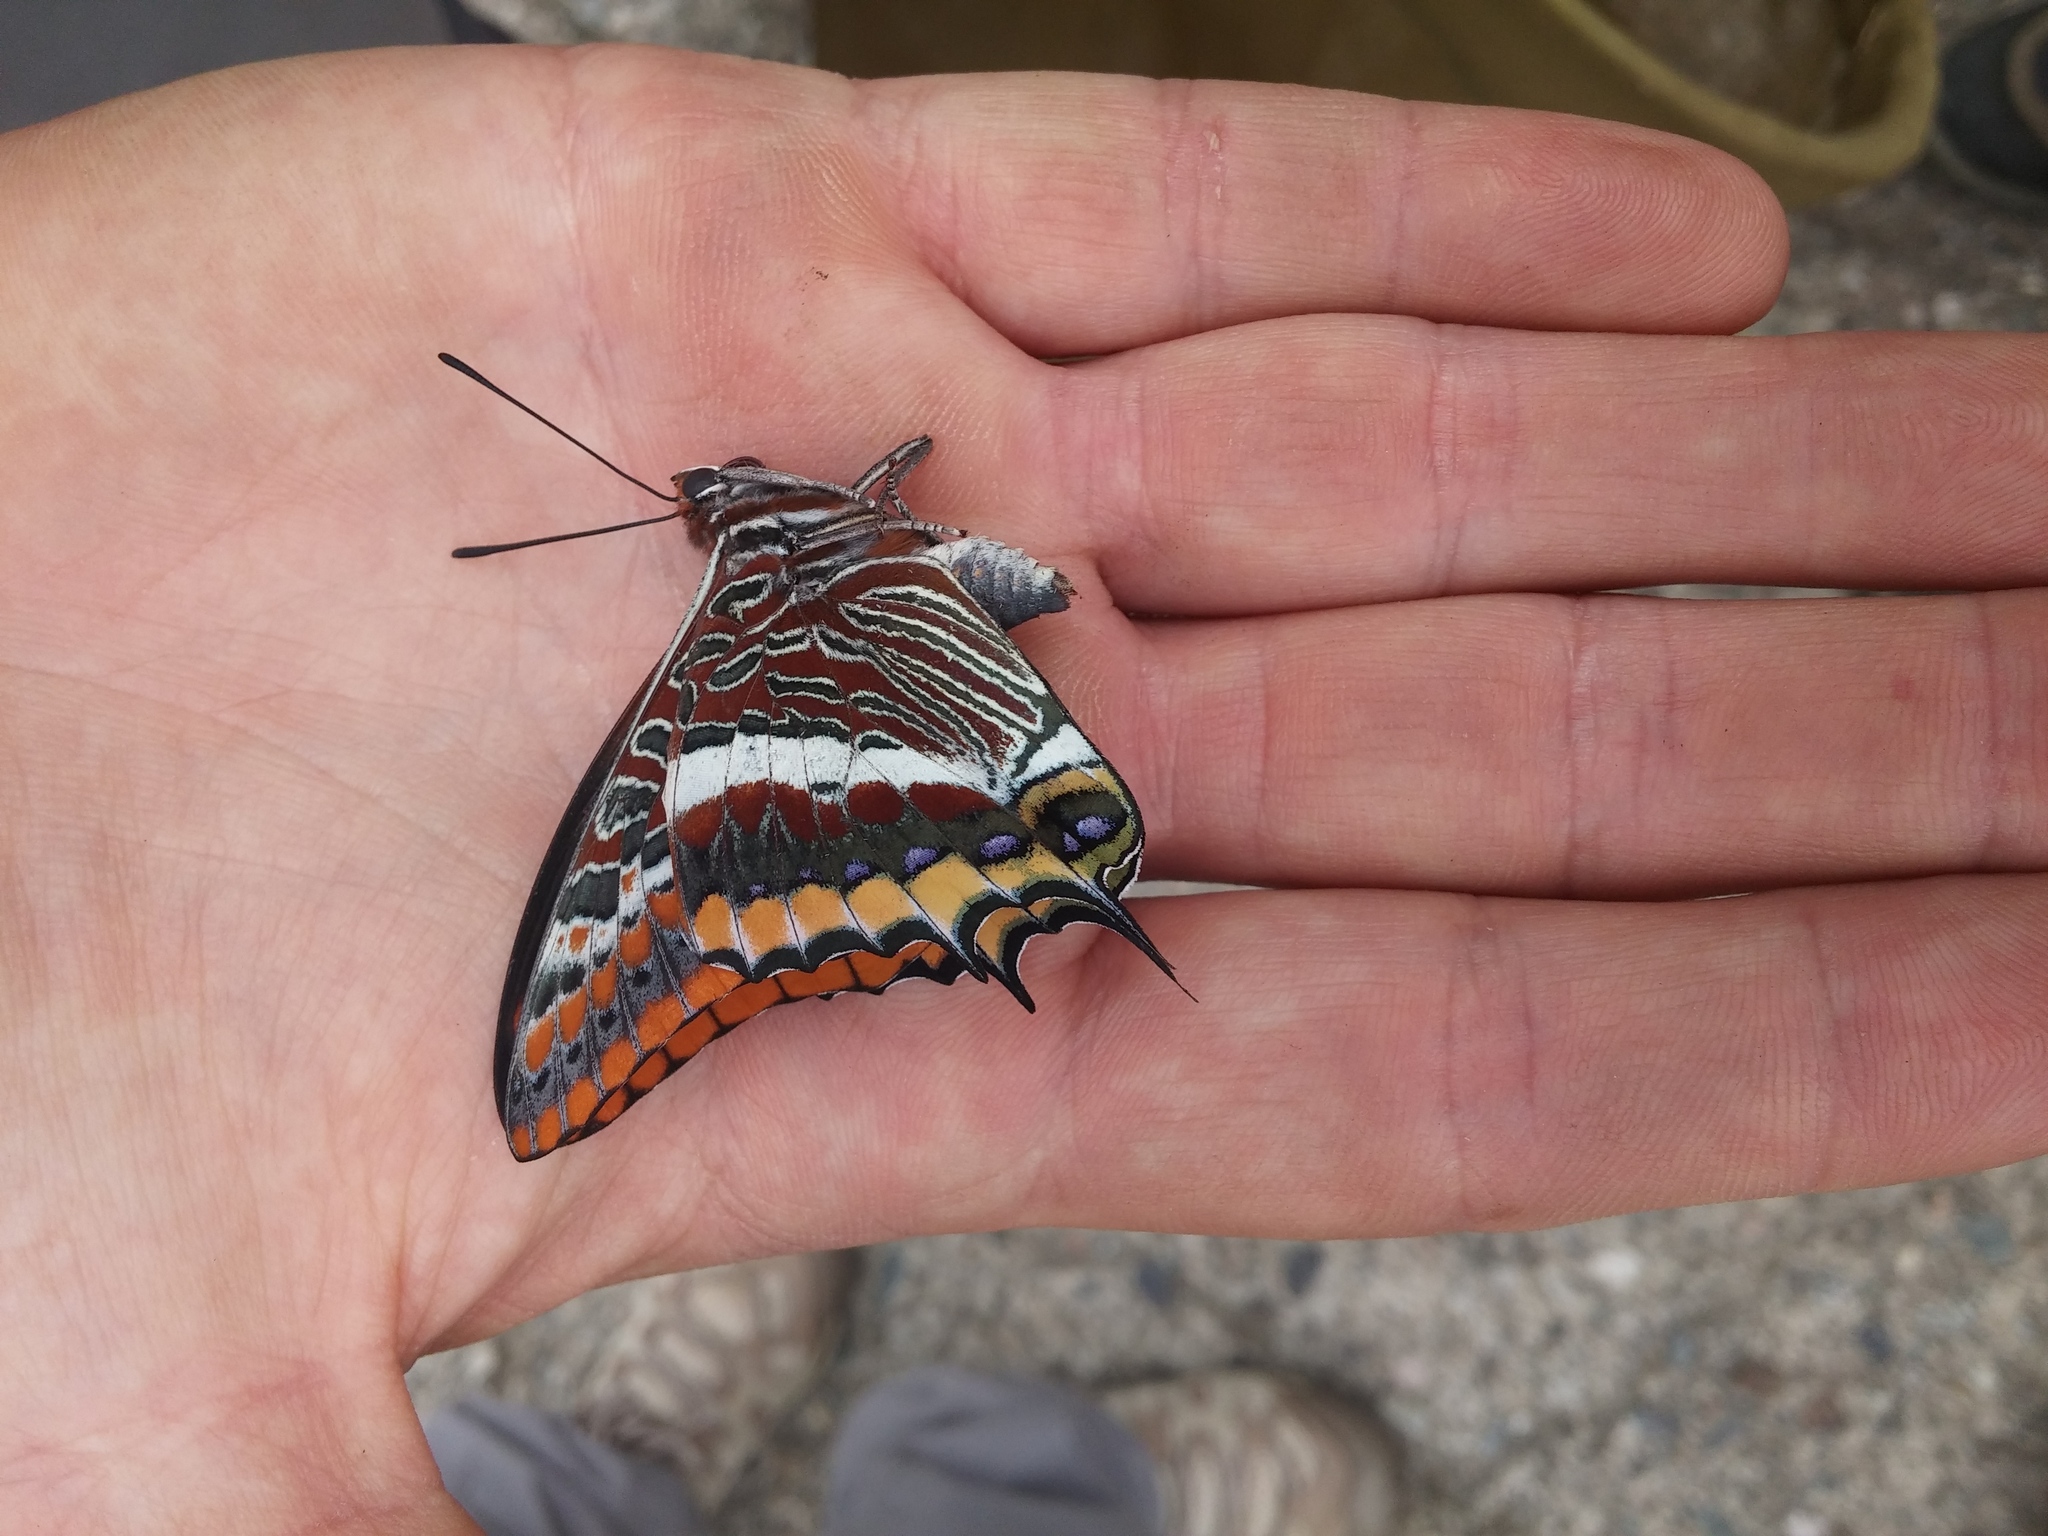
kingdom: Animalia
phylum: Arthropoda
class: Insecta
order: Lepidoptera
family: Nymphalidae
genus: Charaxes
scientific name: Charaxes jasius
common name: Two tailed pasha
